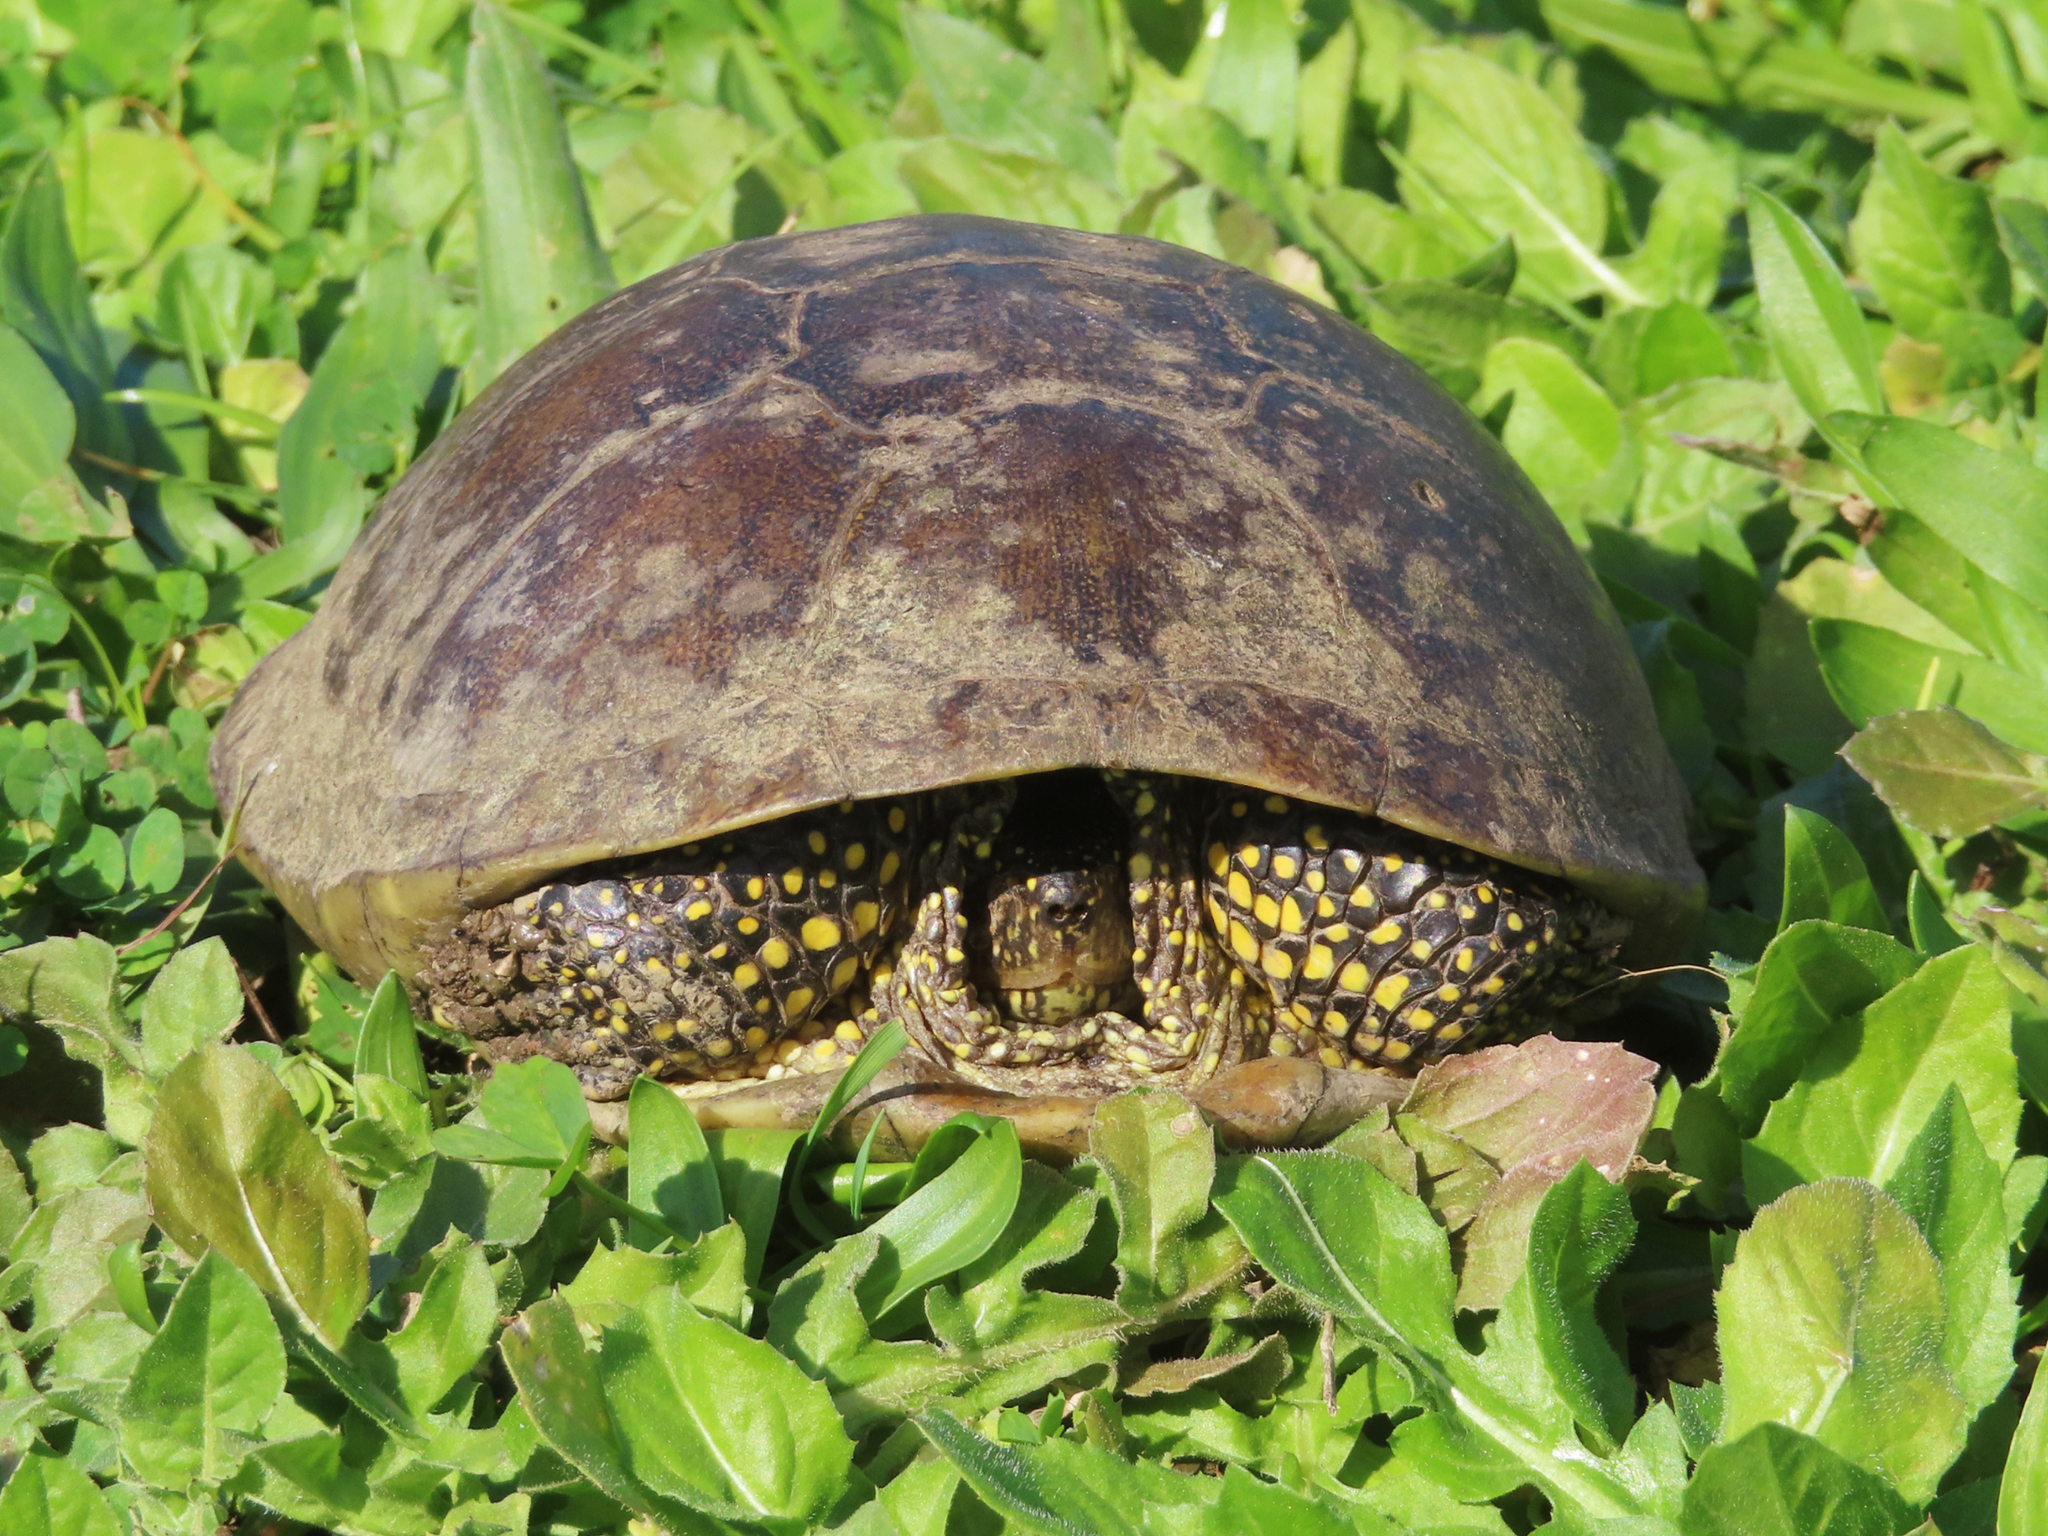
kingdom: Animalia
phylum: Chordata
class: Testudines
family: Emydidae
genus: Emys
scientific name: Emys orbicularis
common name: European pond turtle
